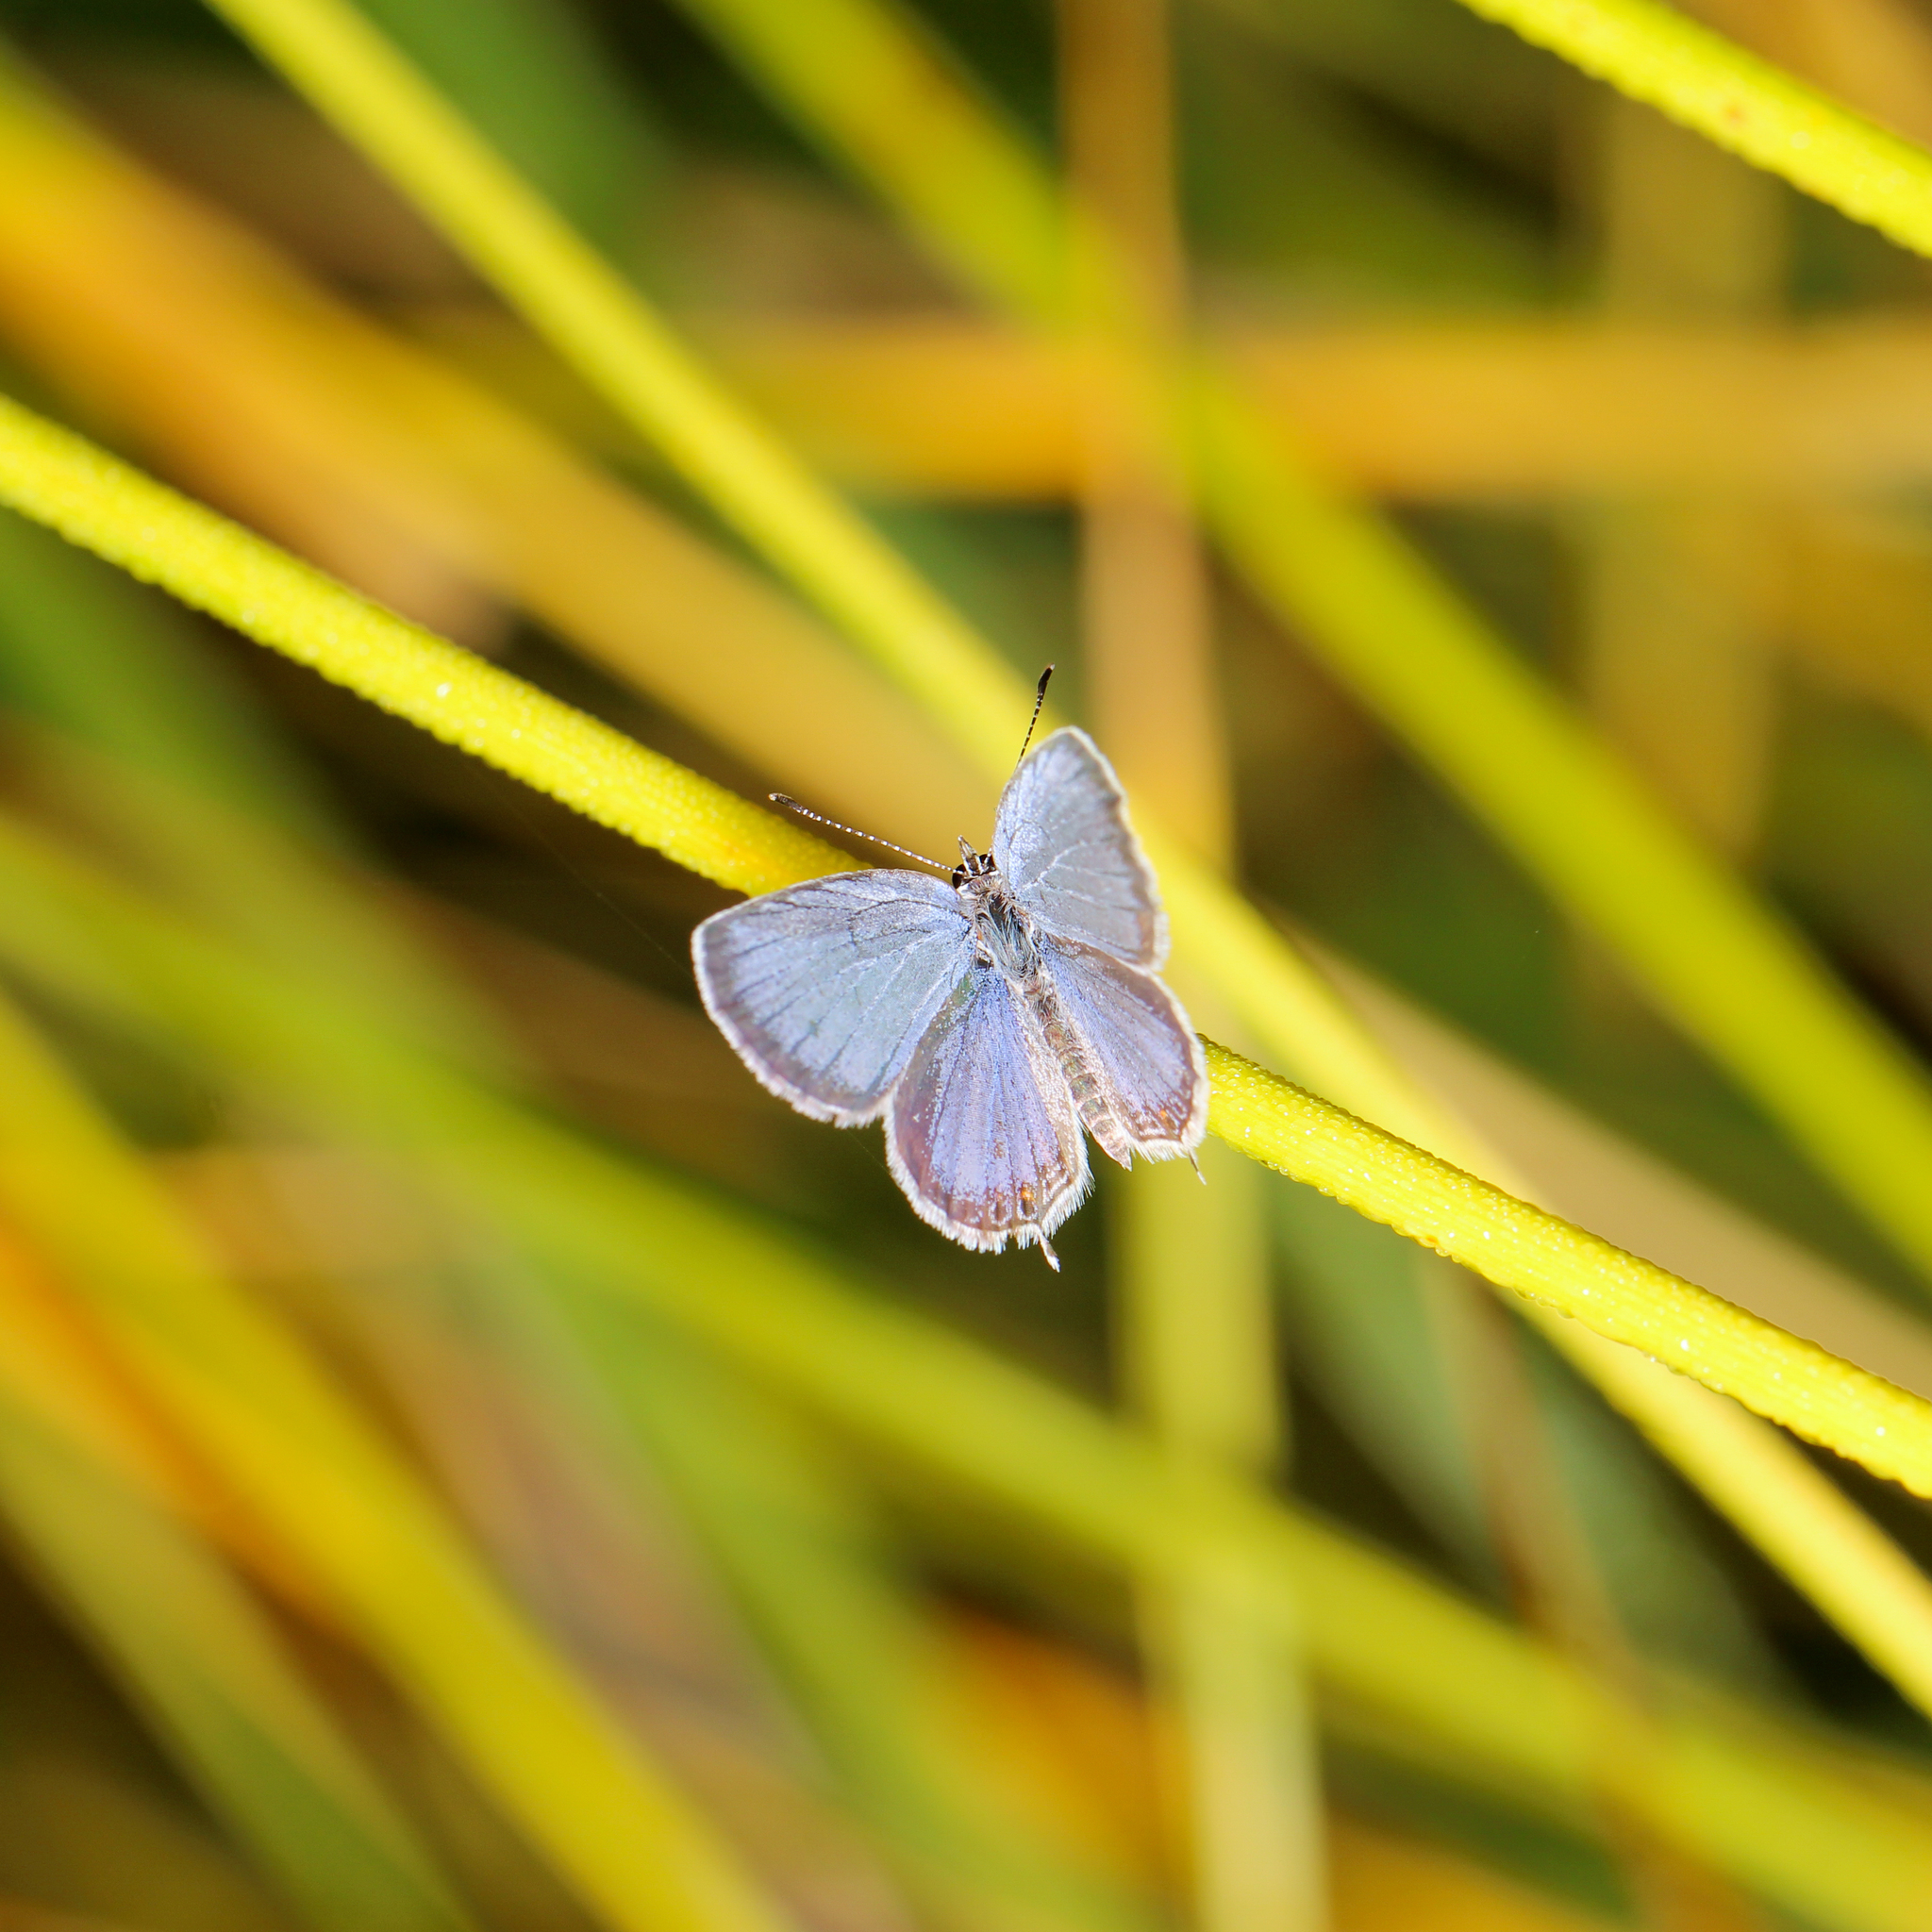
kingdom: Animalia
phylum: Arthropoda
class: Insecta
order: Lepidoptera
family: Lycaenidae
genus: Elkalyce
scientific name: Elkalyce comyntas
